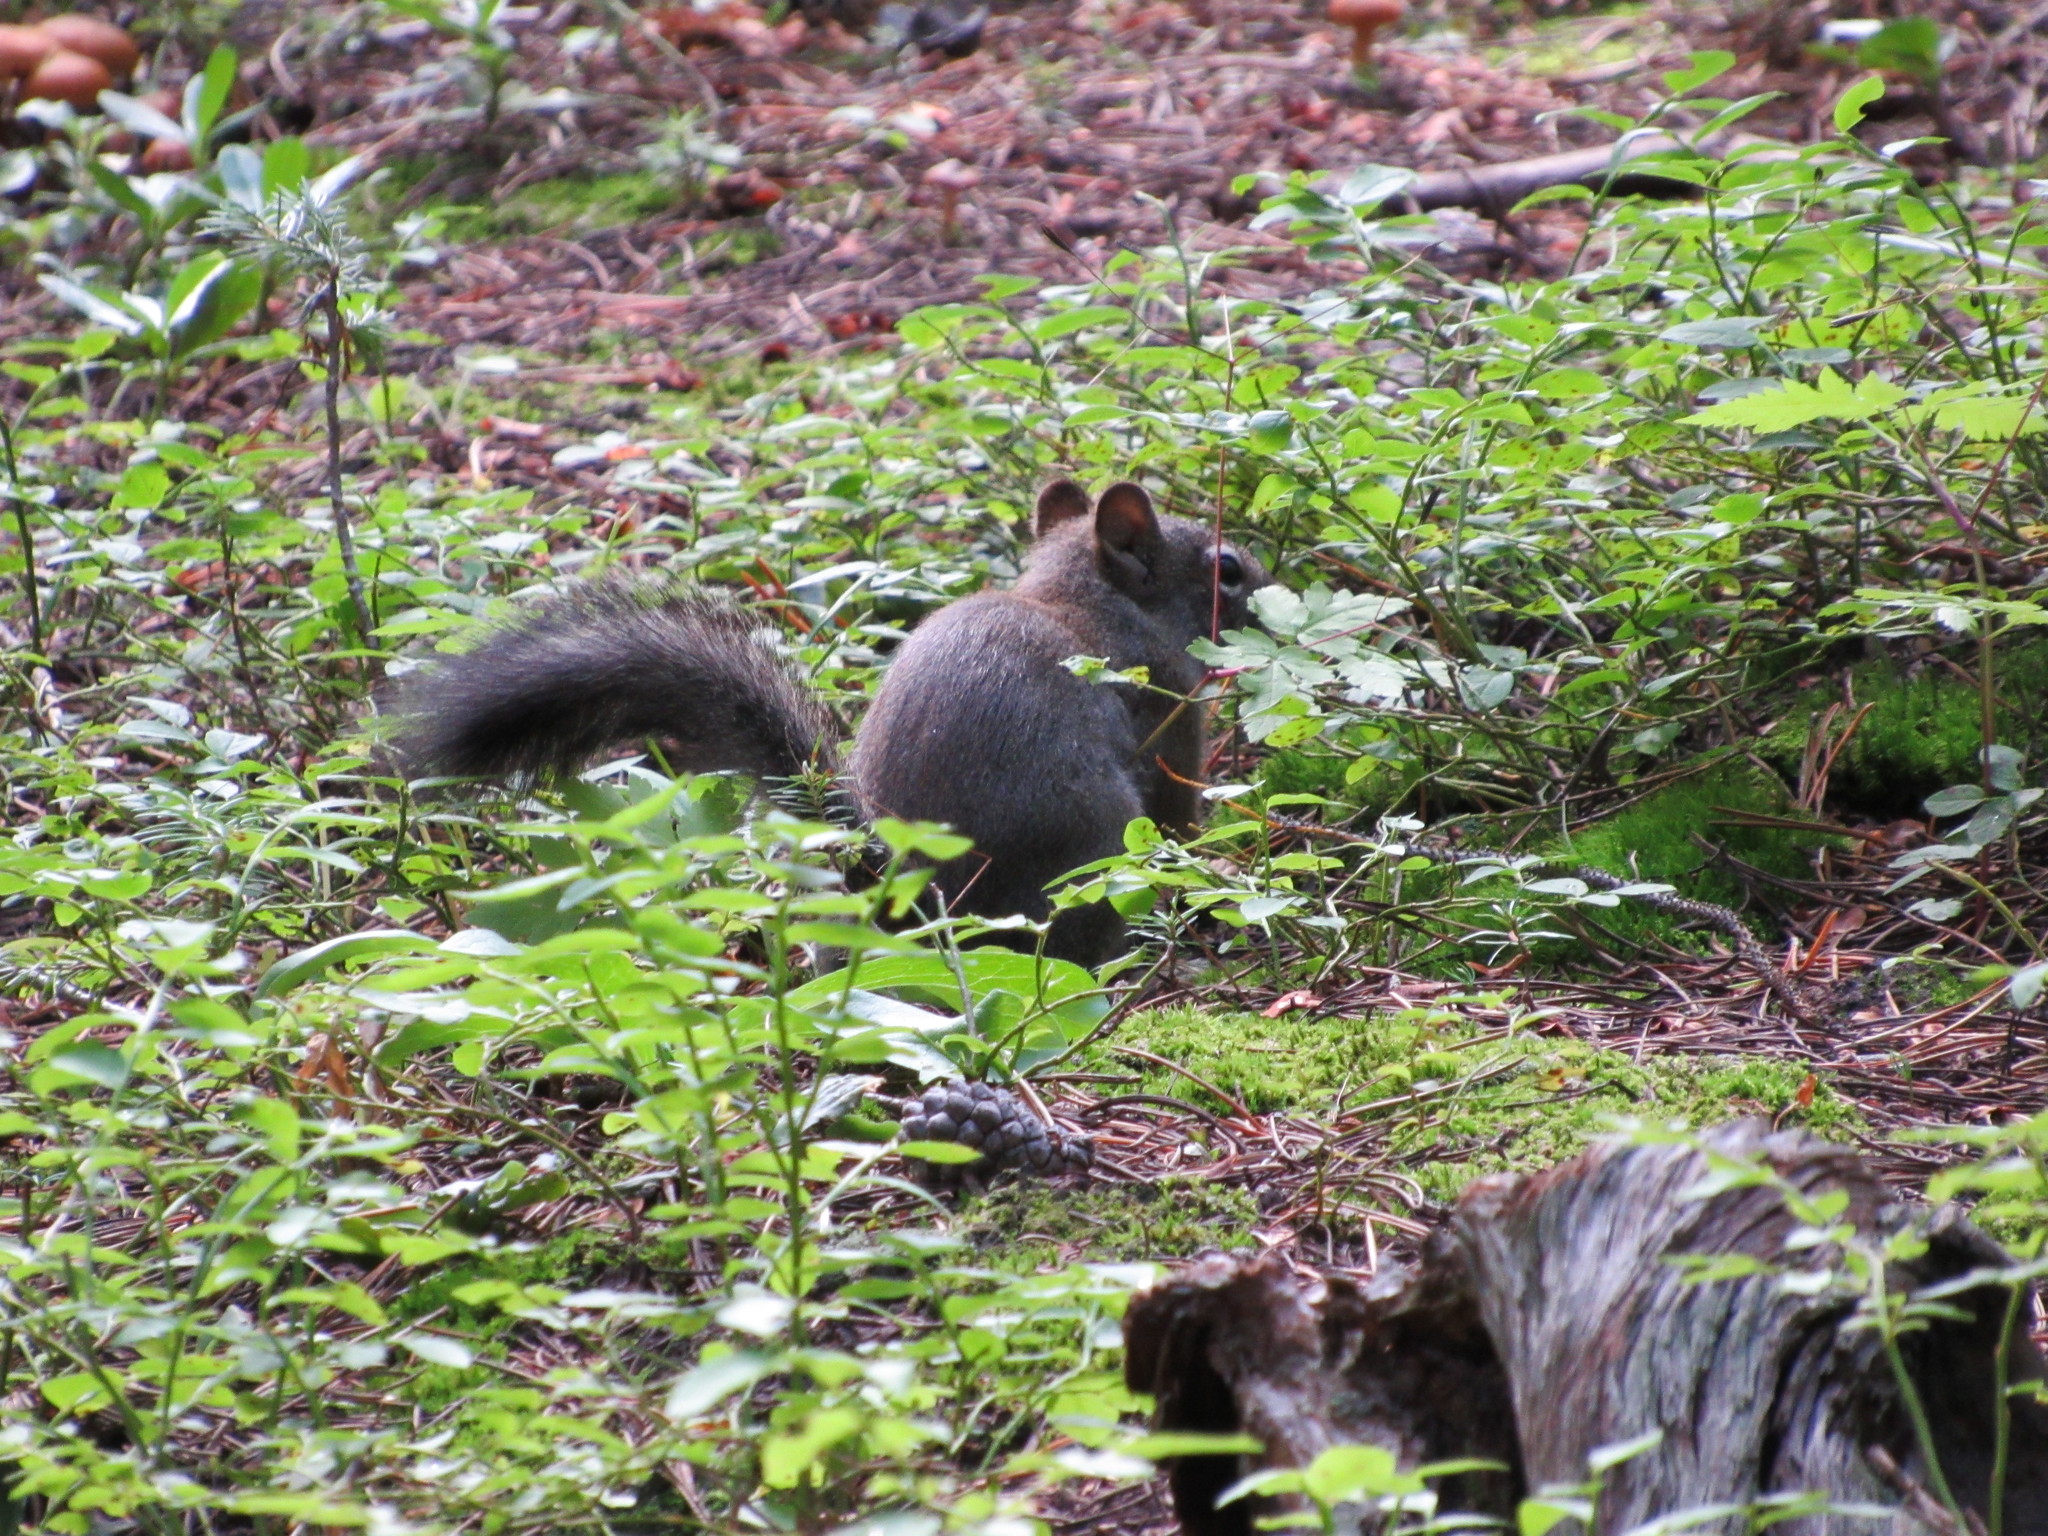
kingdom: Animalia
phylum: Chordata
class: Mammalia
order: Rodentia
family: Sciuridae
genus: Tamiasciurus
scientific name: Tamiasciurus hudsonicus
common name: Red squirrel
